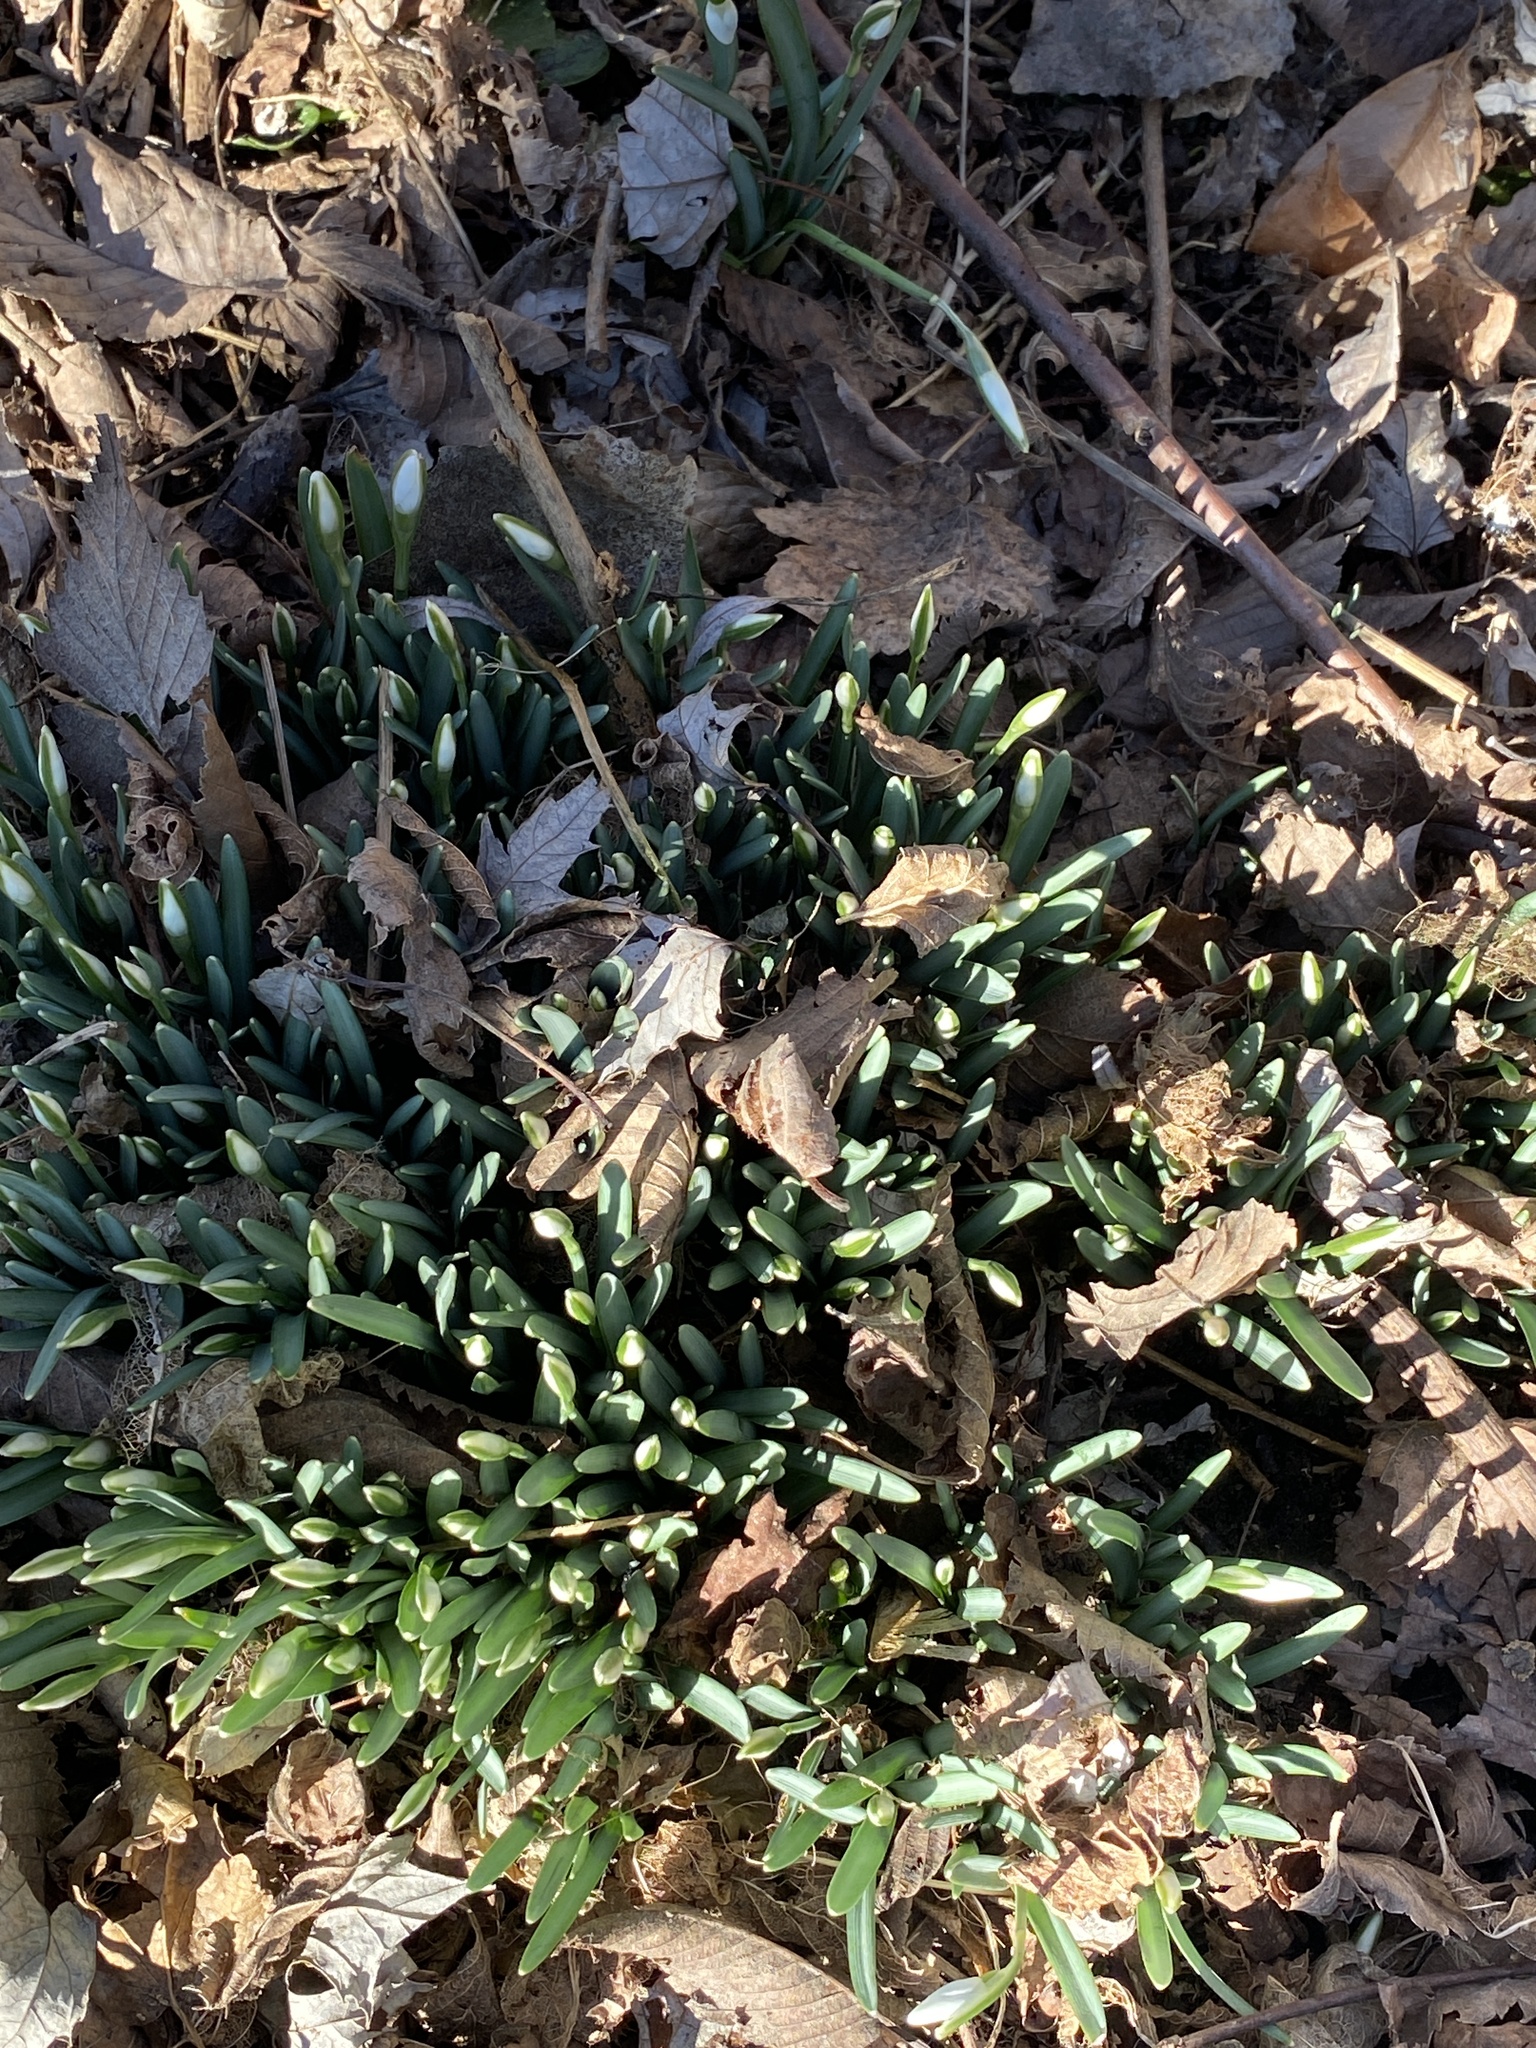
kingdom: Plantae
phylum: Tracheophyta
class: Liliopsida
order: Asparagales
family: Amaryllidaceae
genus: Galanthus
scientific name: Galanthus nivalis
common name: Snowdrop
